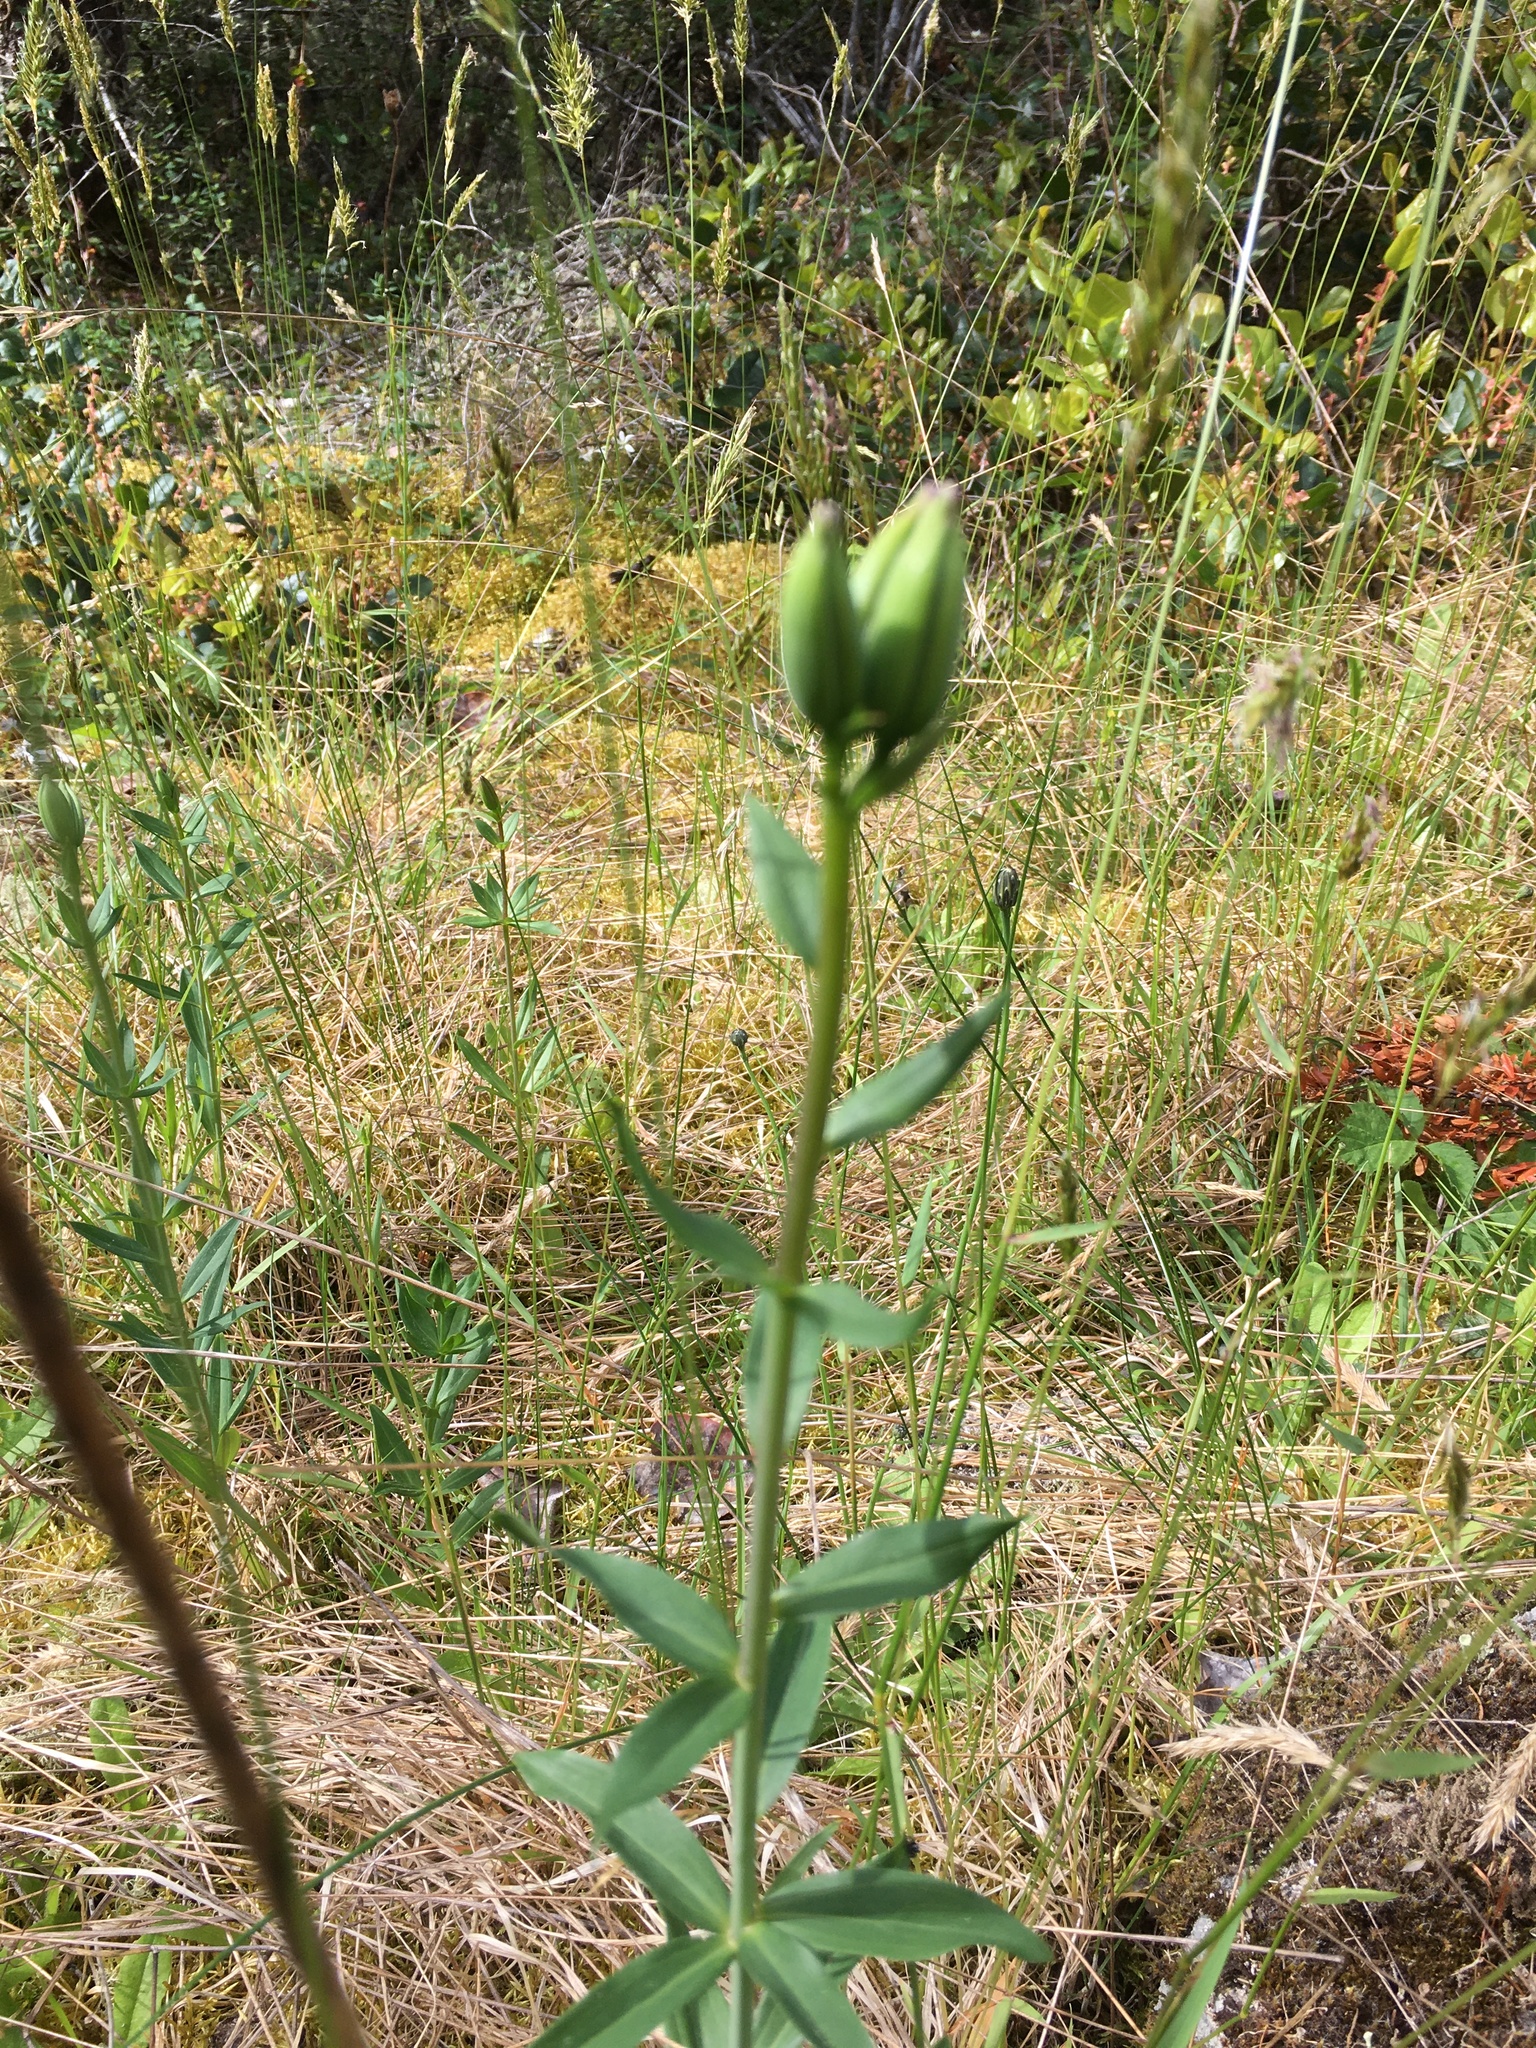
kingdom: Plantae
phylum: Tracheophyta
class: Liliopsida
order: Liliales
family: Liliaceae
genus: Lilium
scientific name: Lilium columbianum
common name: Columbia lily
